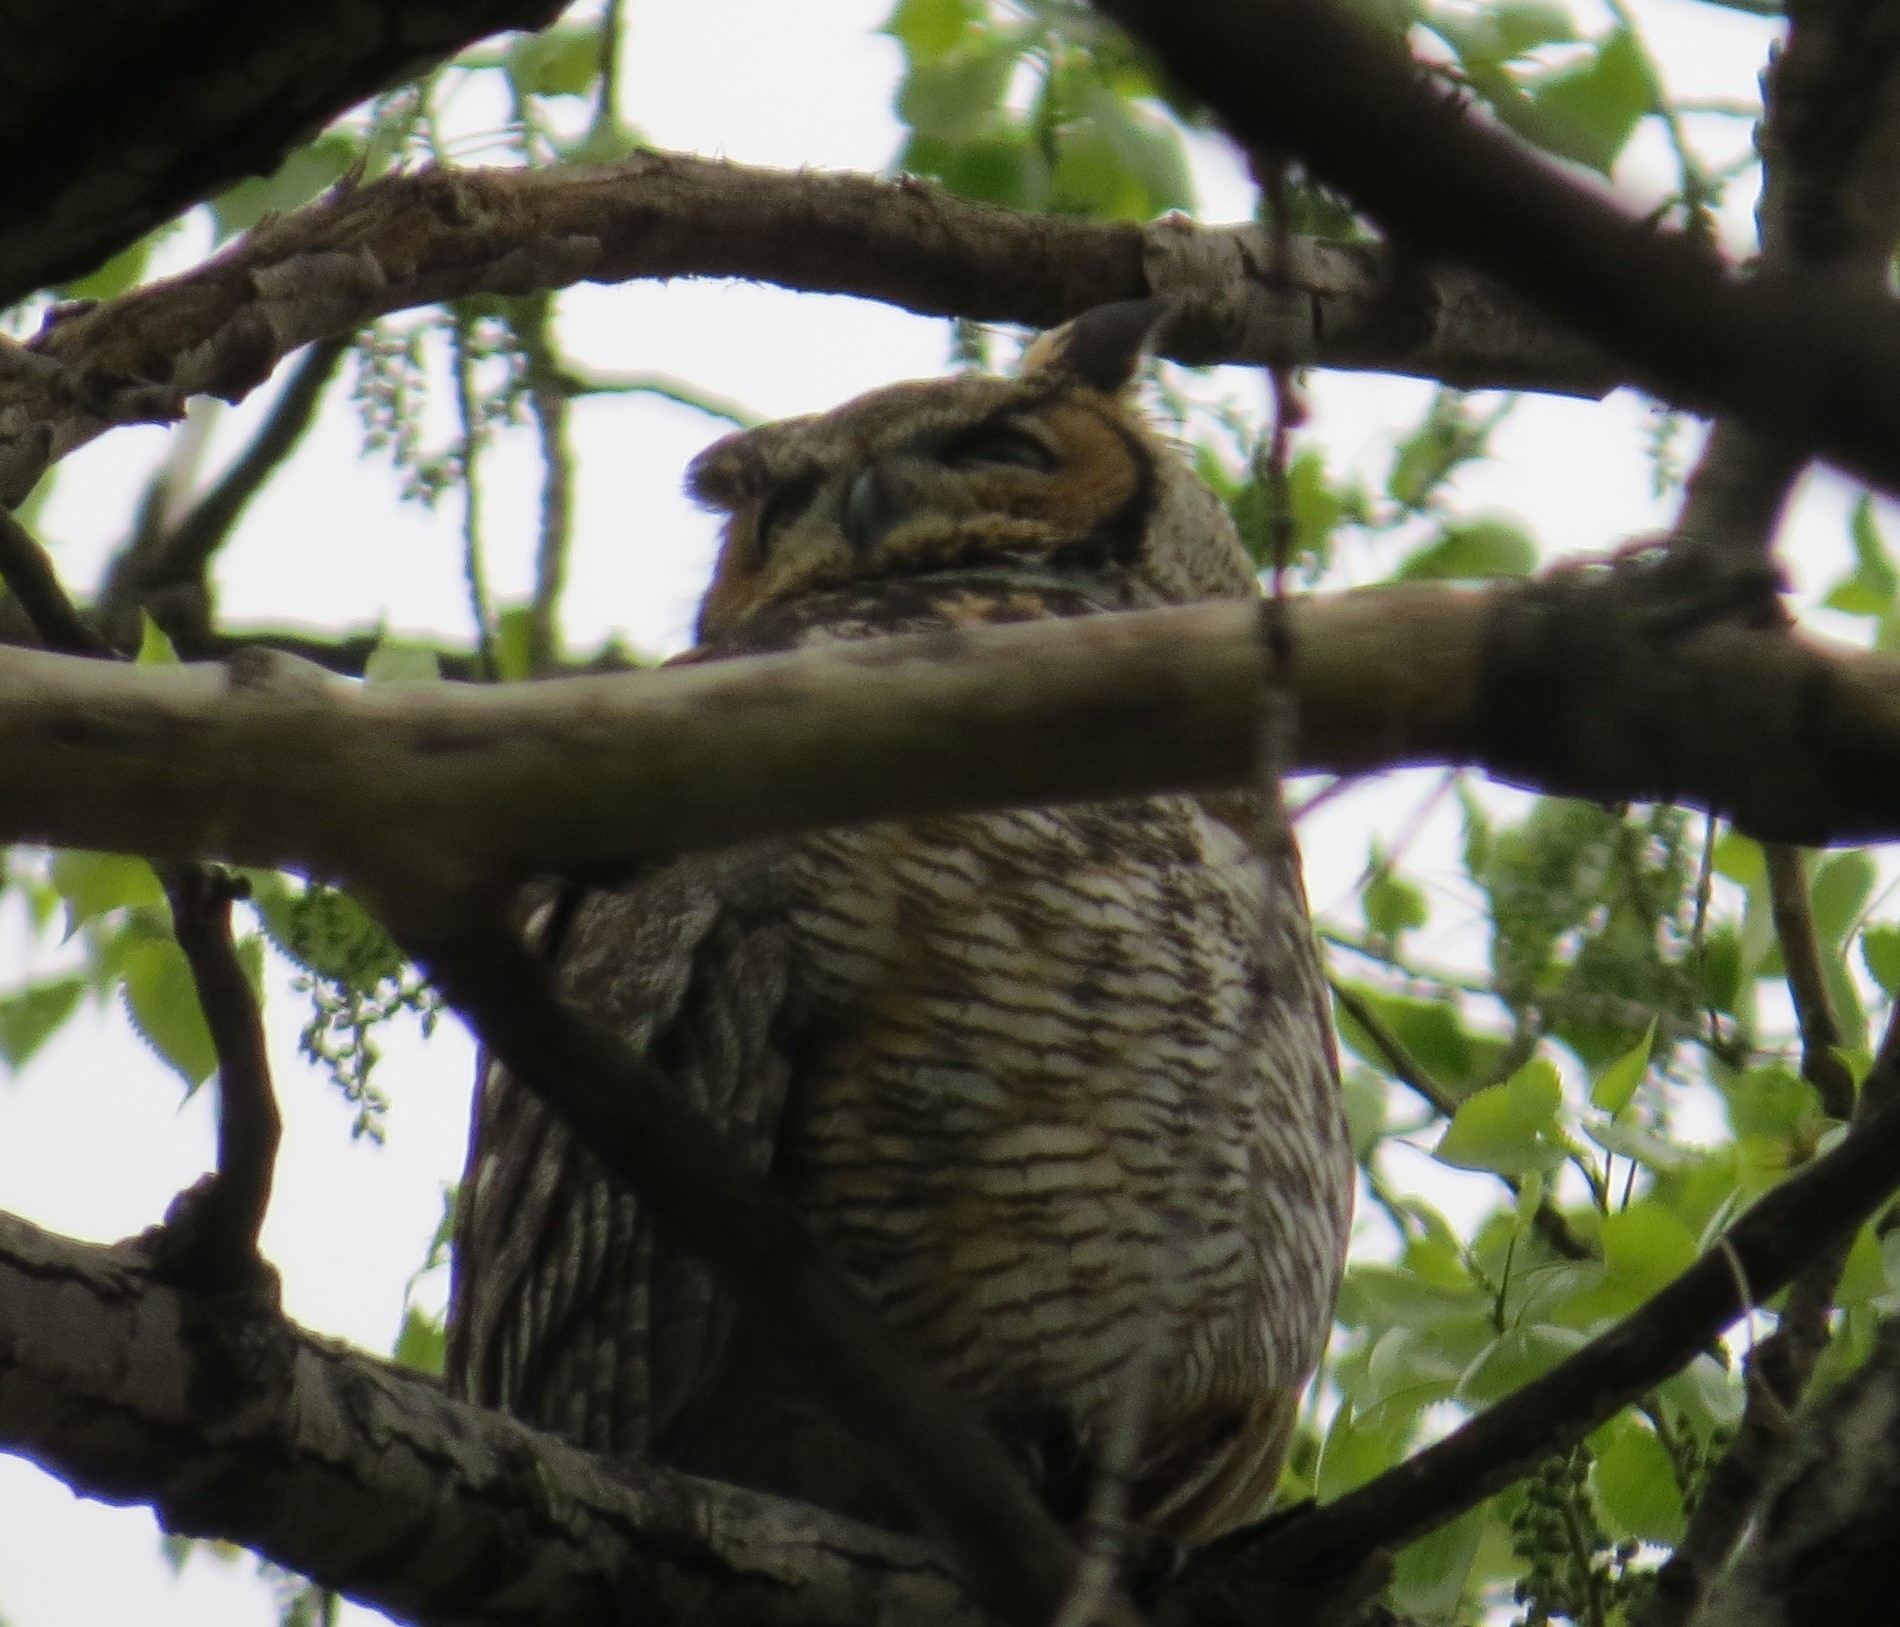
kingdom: Animalia
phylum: Chordata
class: Aves
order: Strigiformes
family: Strigidae
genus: Bubo
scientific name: Bubo virginianus
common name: Great horned owl
